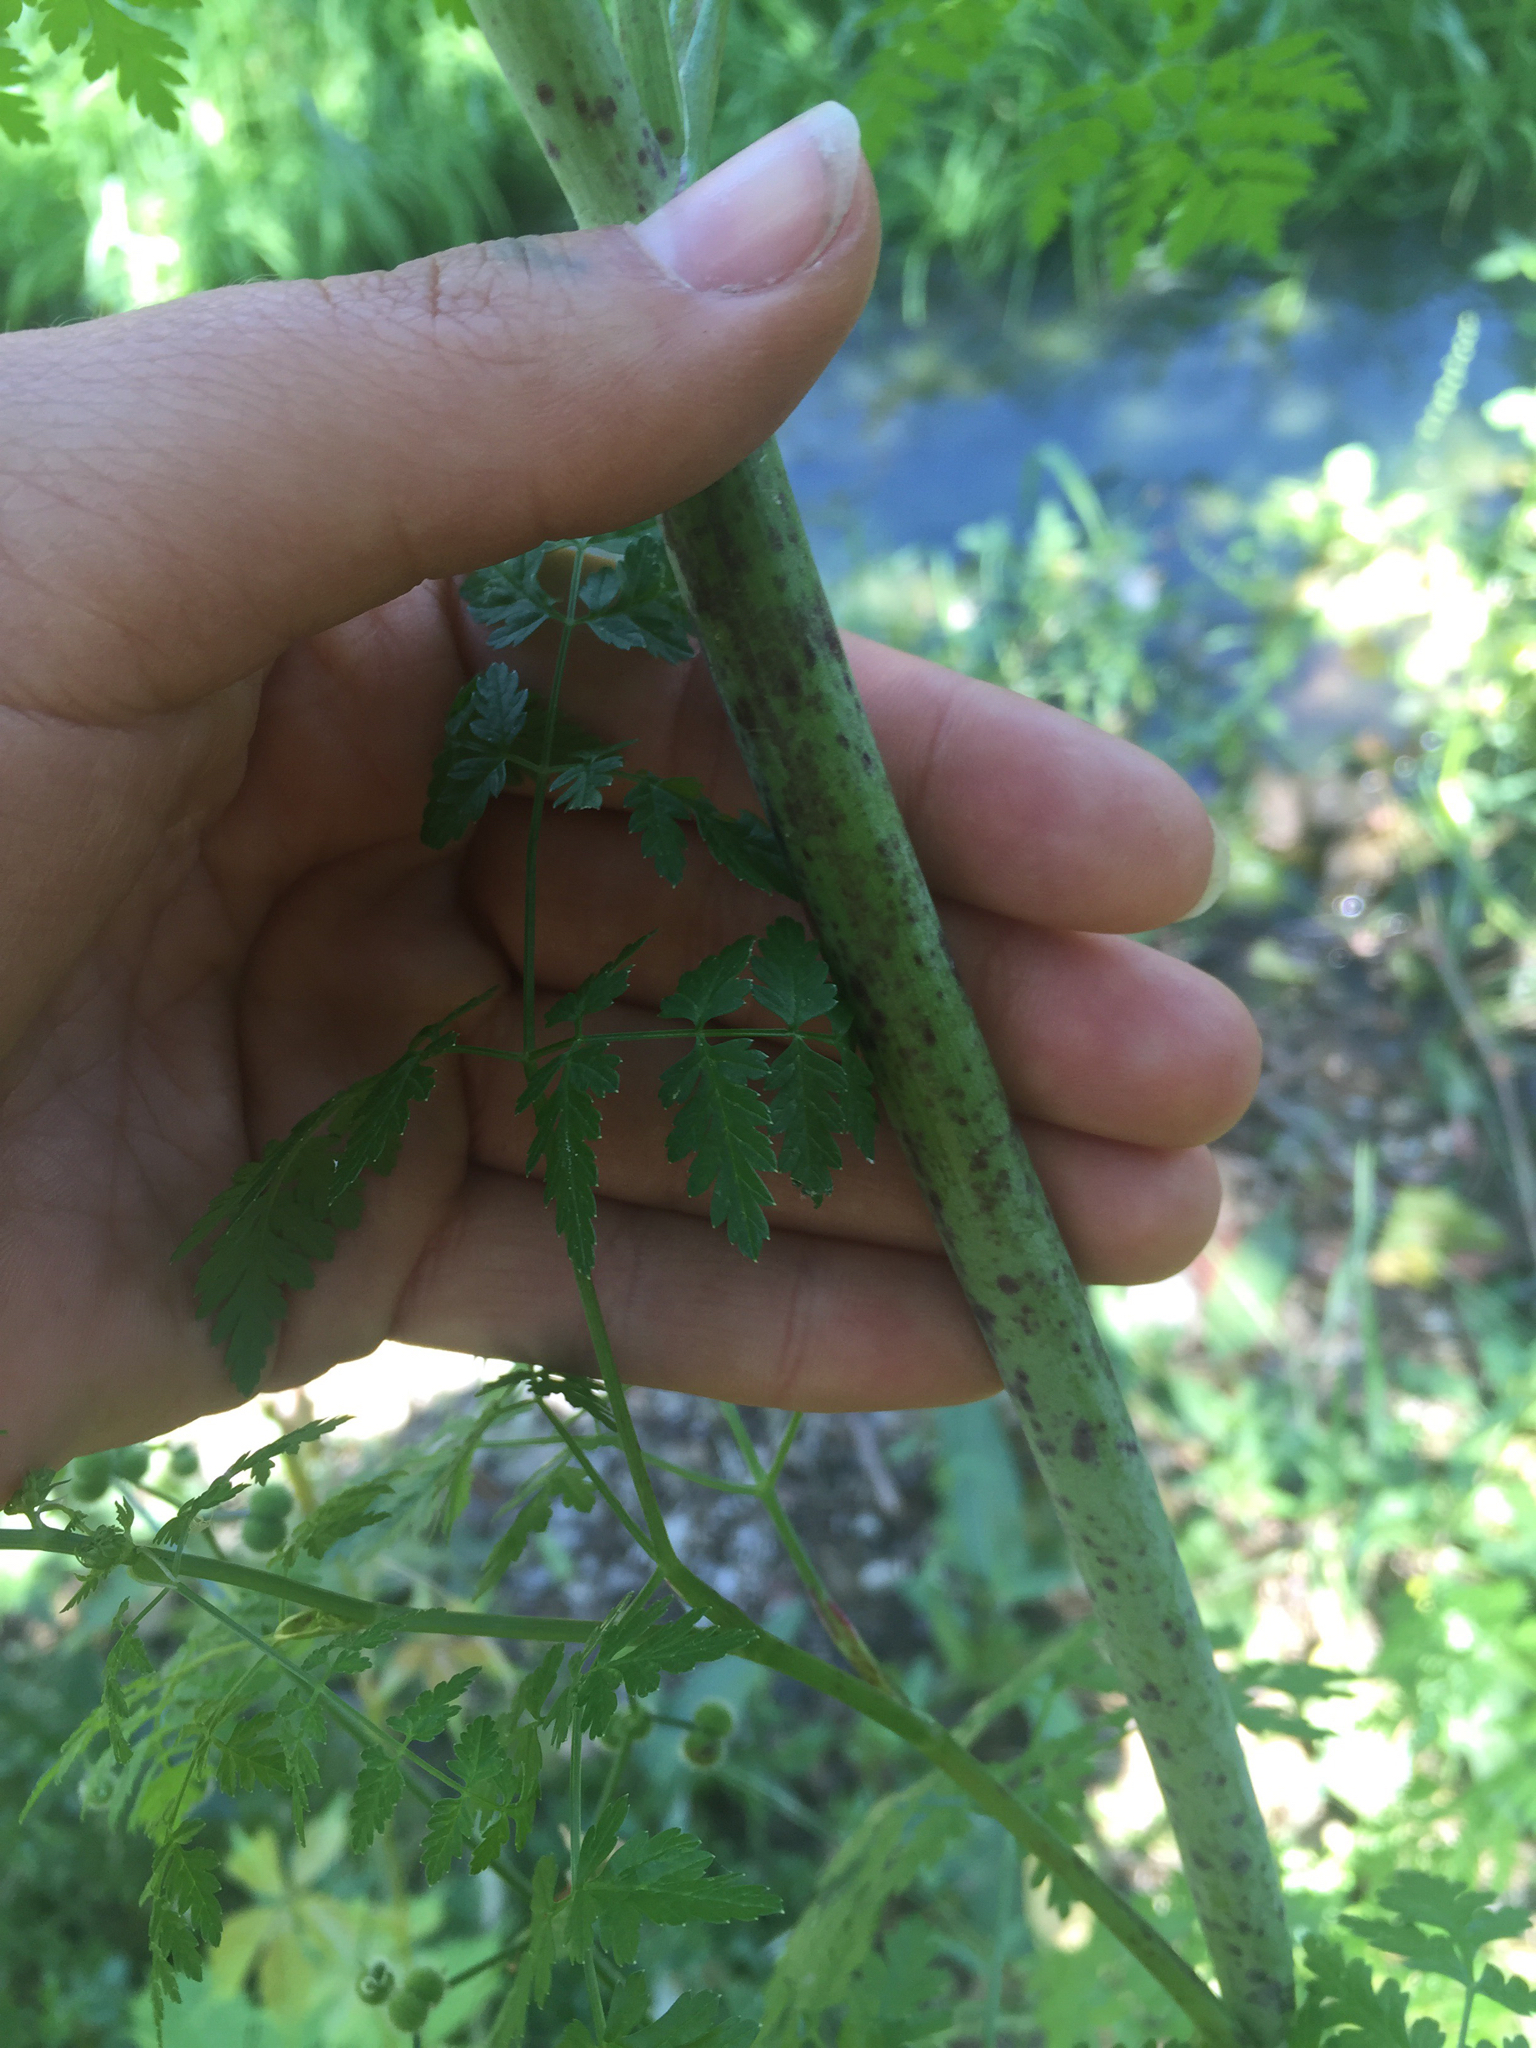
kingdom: Plantae
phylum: Tracheophyta
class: Magnoliopsida
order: Apiales
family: Apiaceae
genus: Conium
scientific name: Conium maculatum
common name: Hemlock
